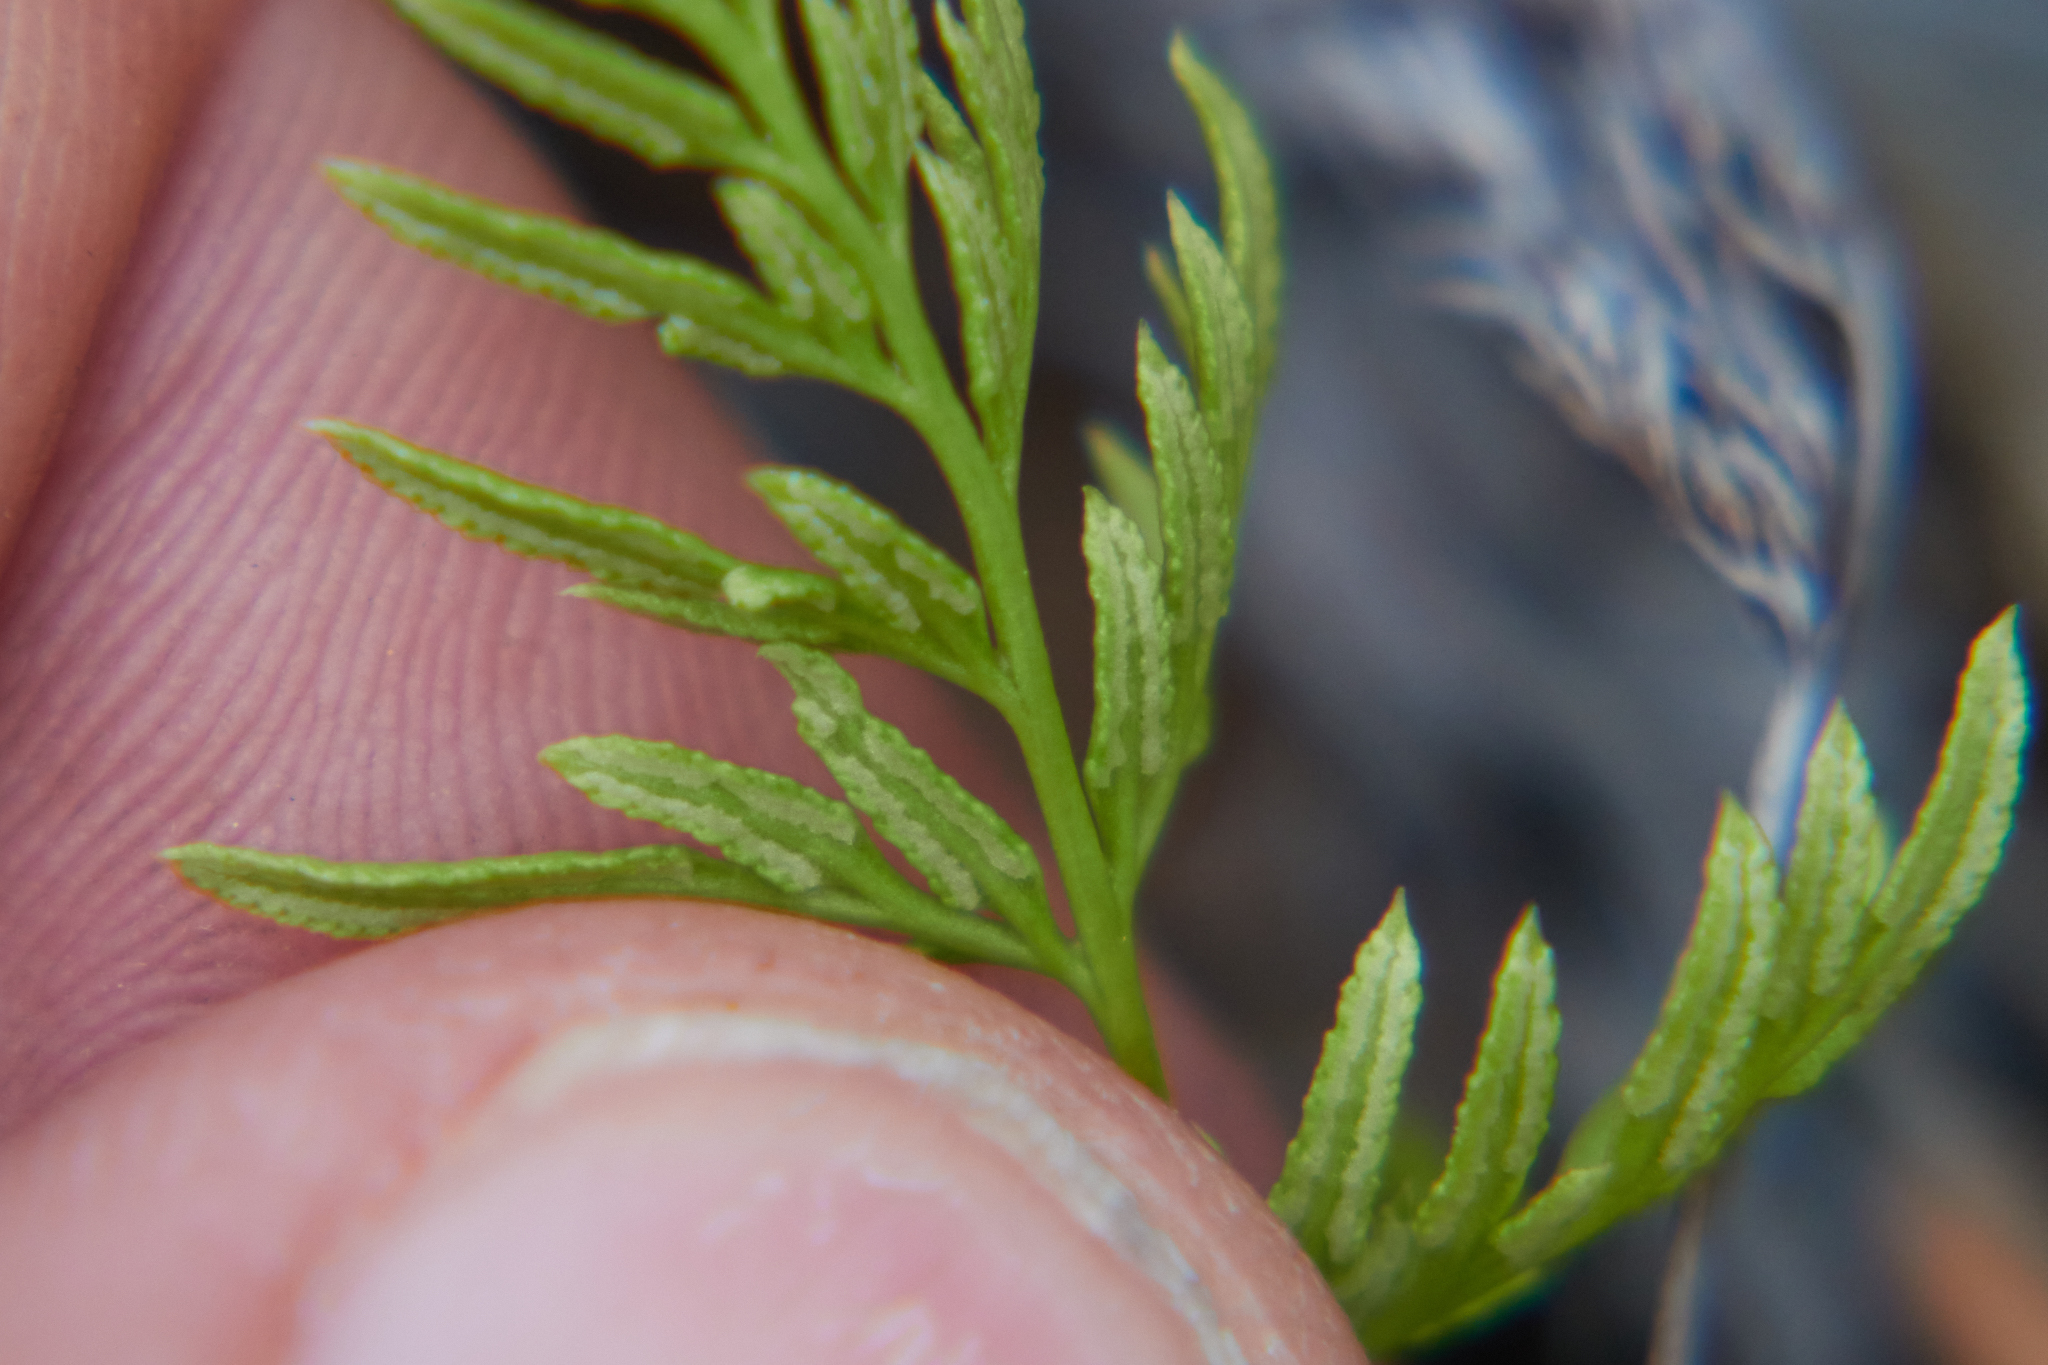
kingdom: Plantae
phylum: Tracheophyta
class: Polypodiopsida
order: Polypodiales
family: Pteridaceae
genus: Aspidotis
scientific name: Aspidotis densa
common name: Indian's dream
